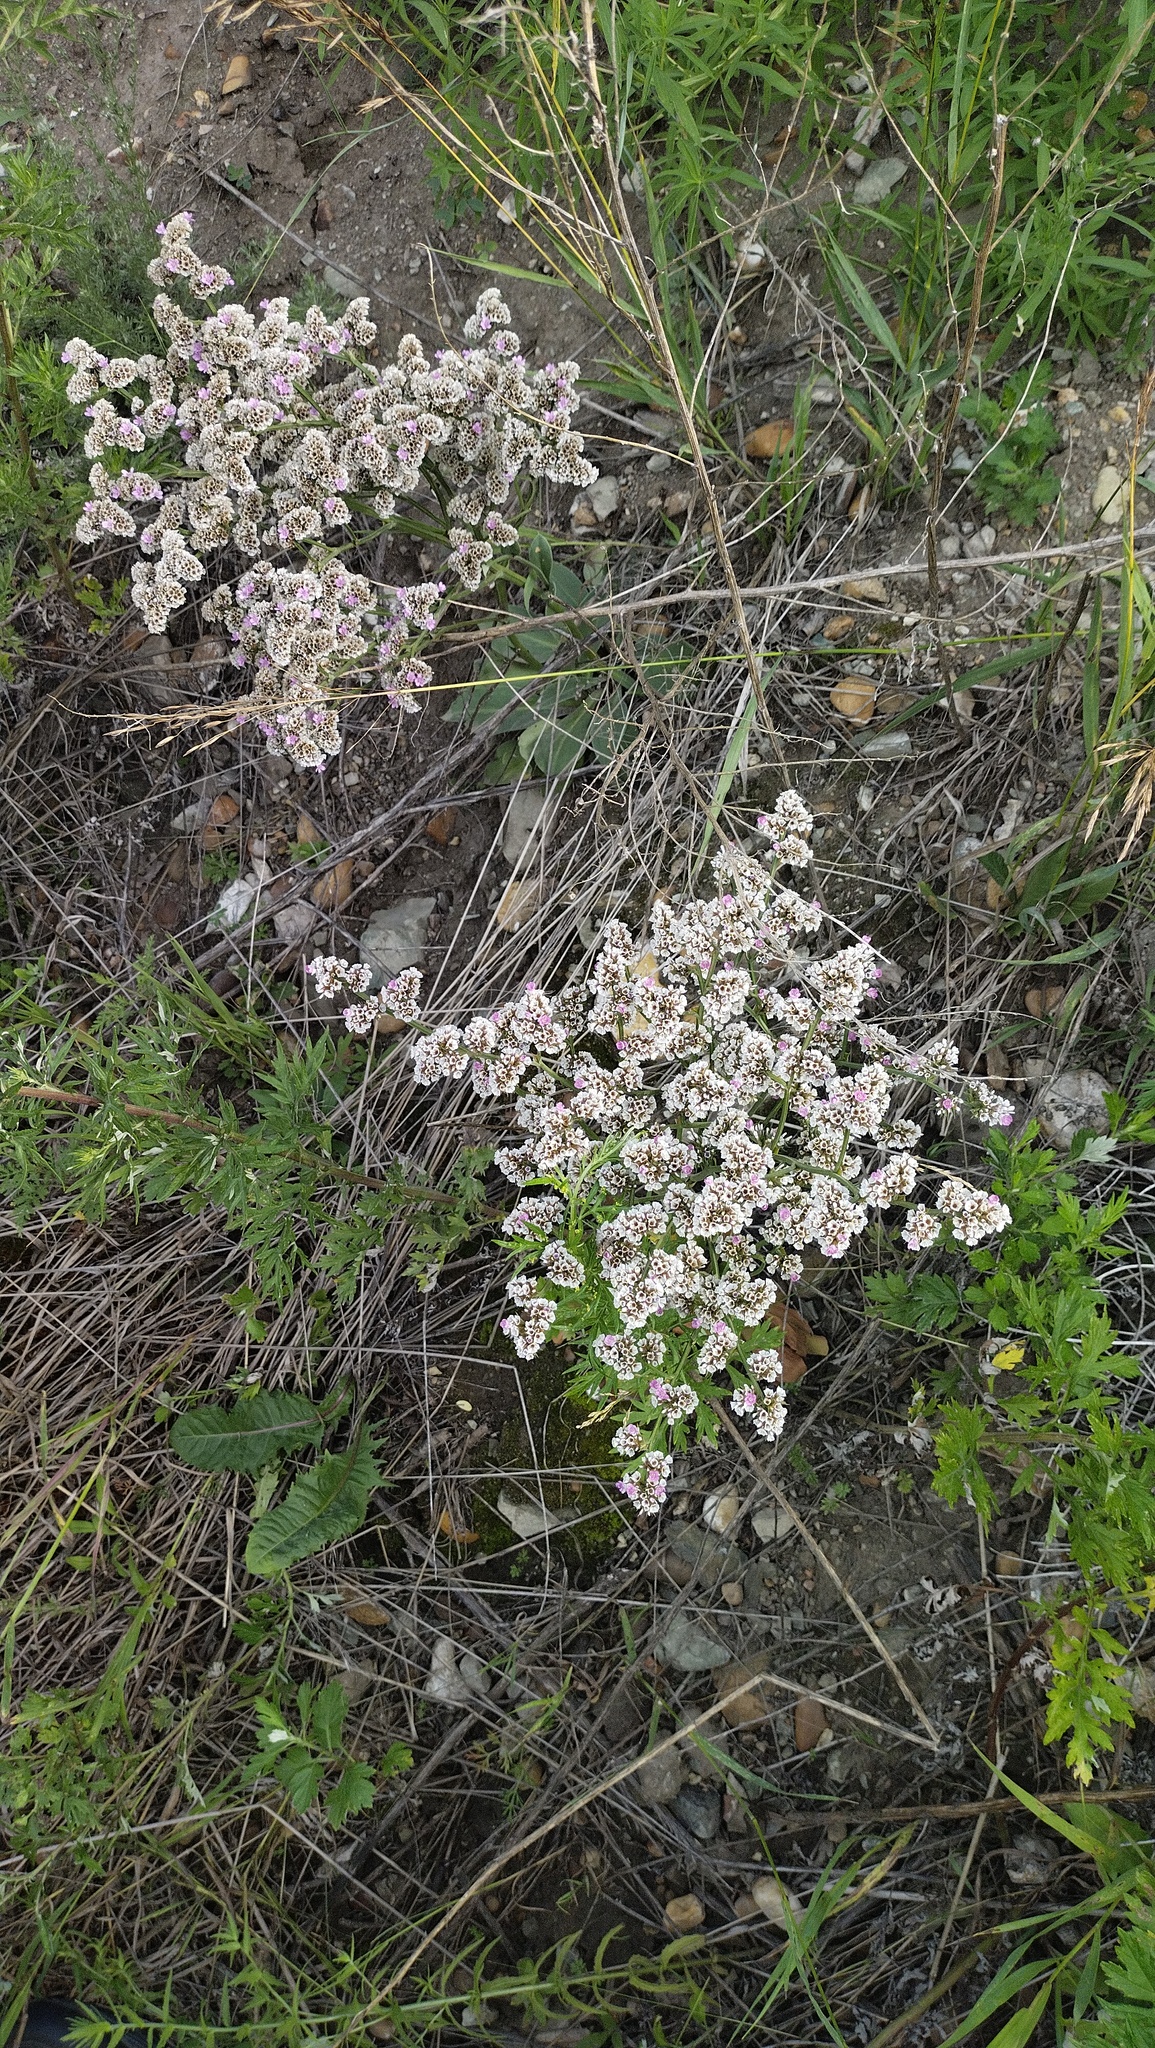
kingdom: Plantae
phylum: Tracheophyta
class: Magnoliopsida
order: Caryophyllales
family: Plumbaginaceae
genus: Goniolimon
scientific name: Goniolimon speciosum
